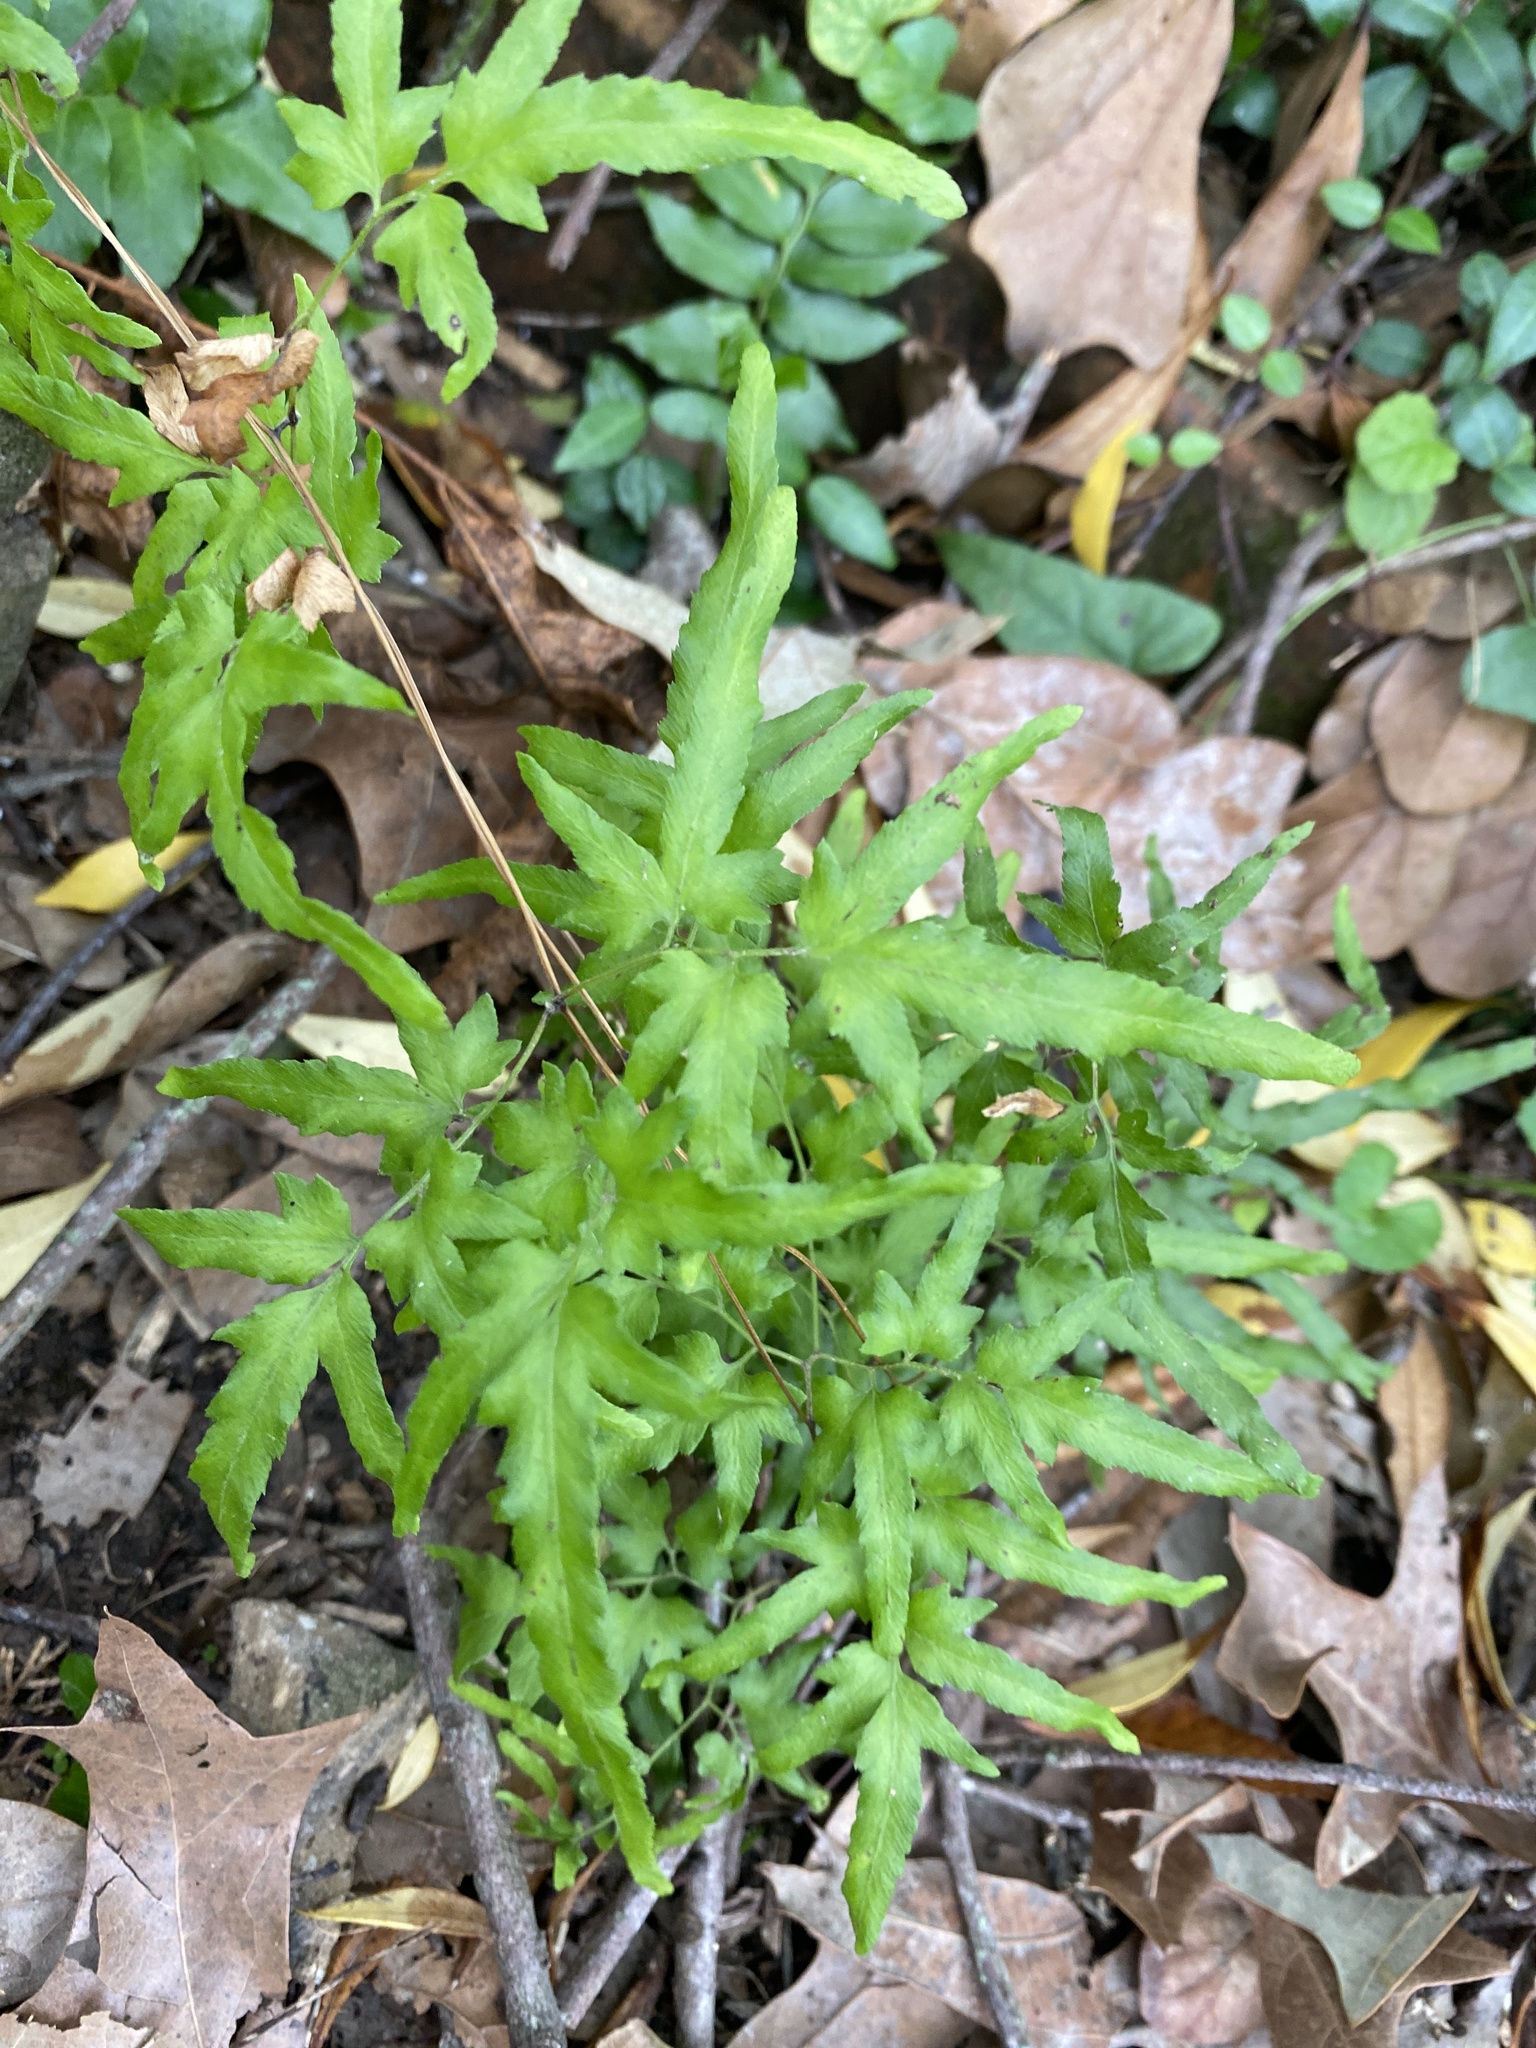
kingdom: Plantae
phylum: Tracheophyta
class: Polypodiopsida
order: Schizaeales
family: Lygodiaceae
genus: Lygodium
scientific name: Lygodium japonicum
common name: Japanese climbing fern
